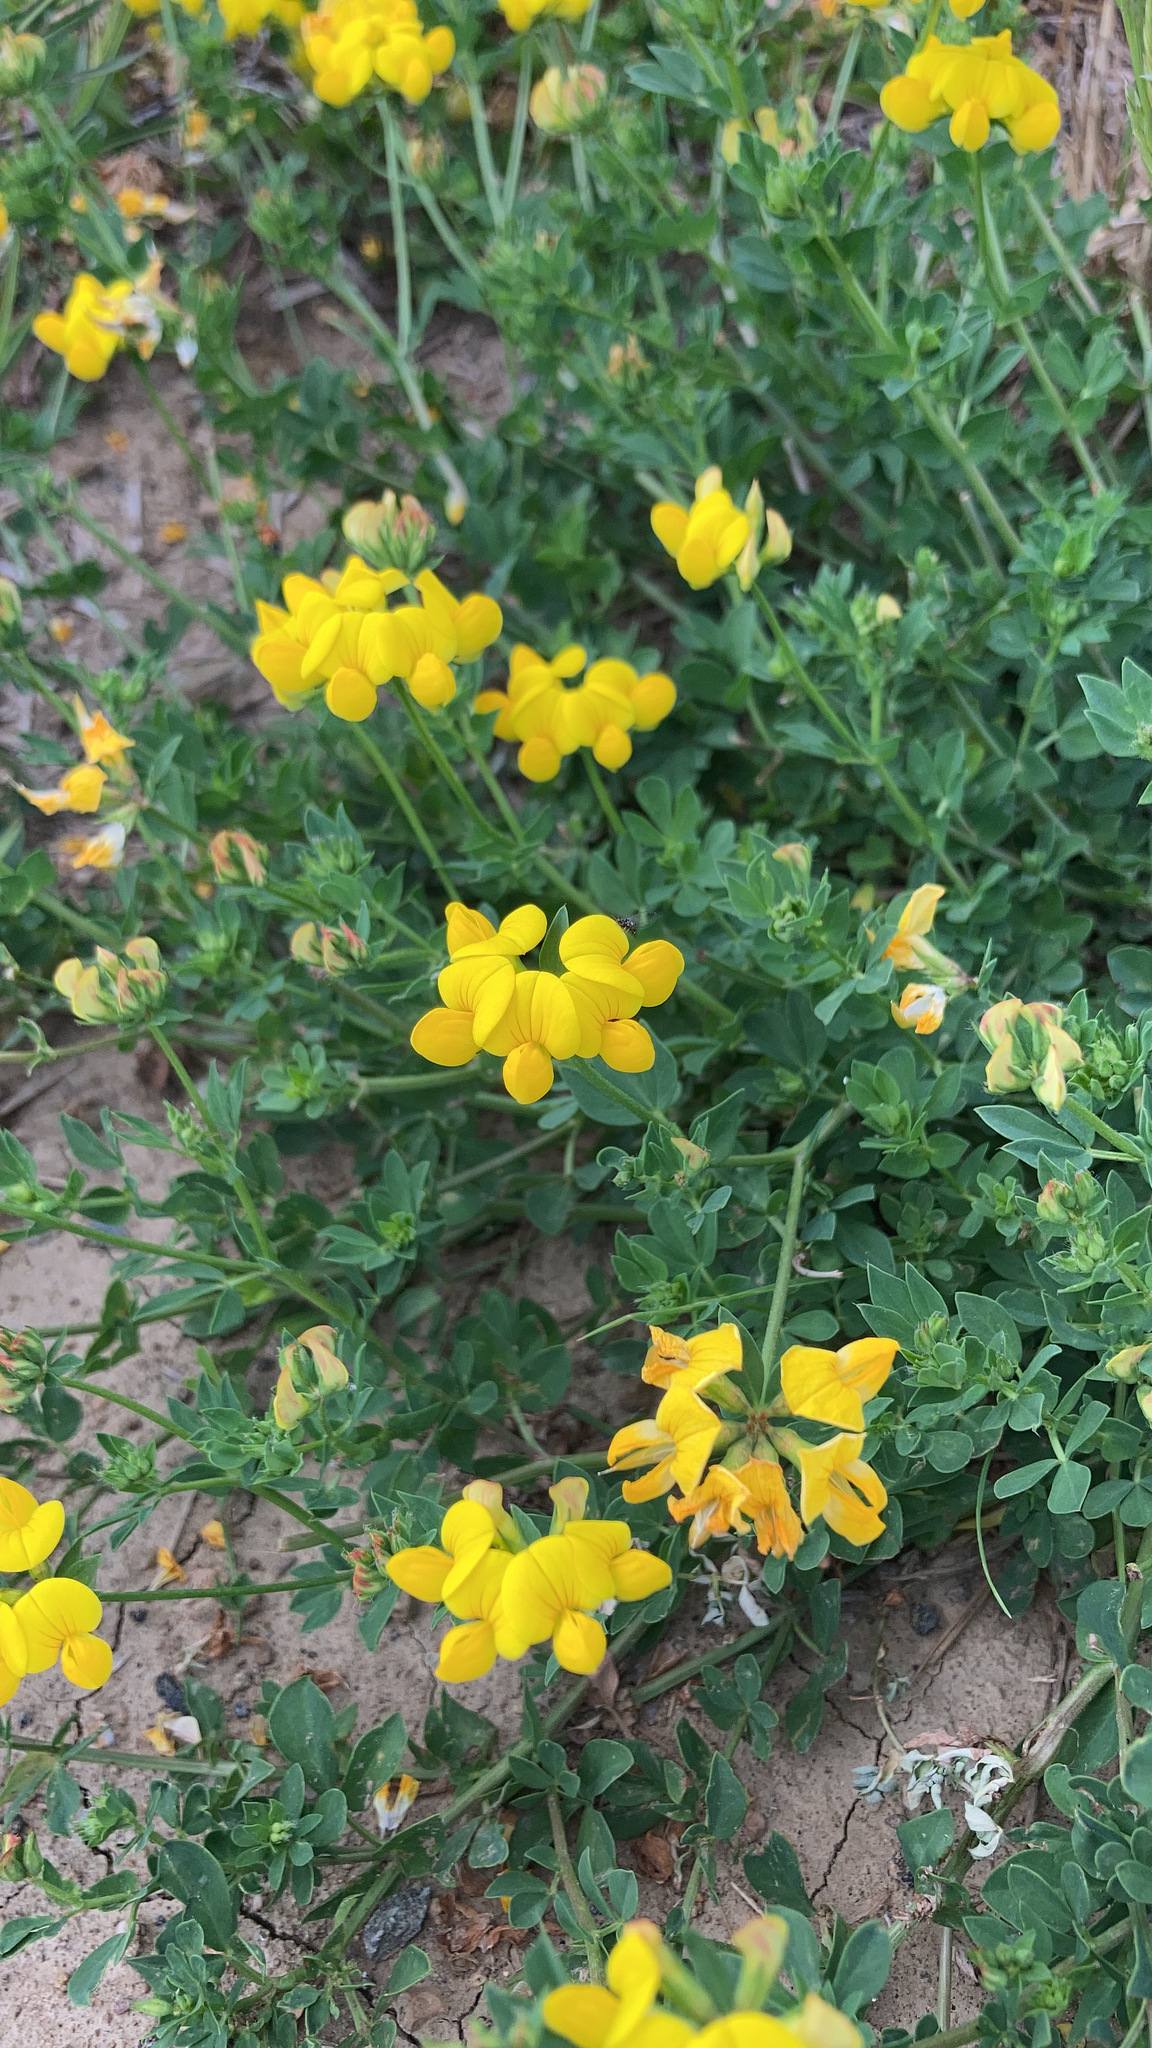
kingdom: Plantae
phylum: Tracheophyta
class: Magnoliopsida
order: Fabales
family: Fabaceae
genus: Lotus
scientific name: Lotus corniculatus
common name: Common bird's-foot-trefoil
